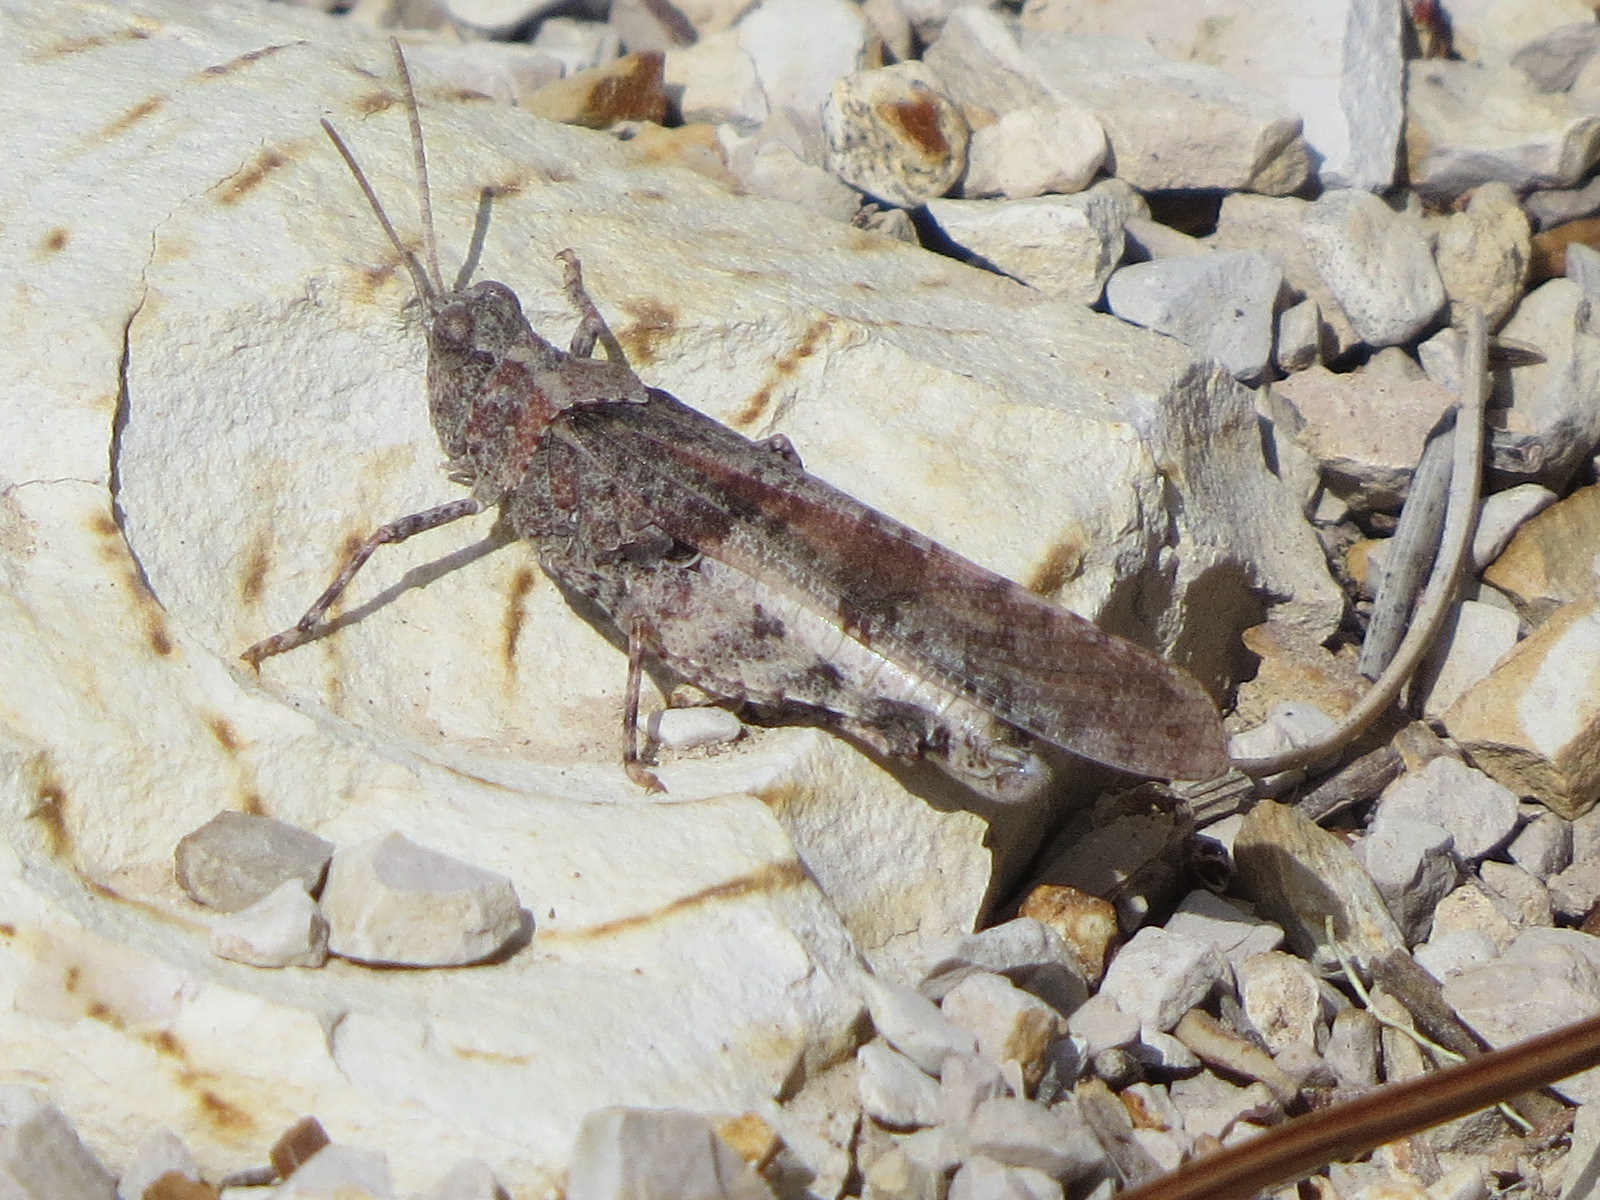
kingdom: Animalia
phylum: Arthropoda
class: Insecta
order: Orthoptera
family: Acrididae
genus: Trimerotropis
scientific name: Trimerotropis thalassica
